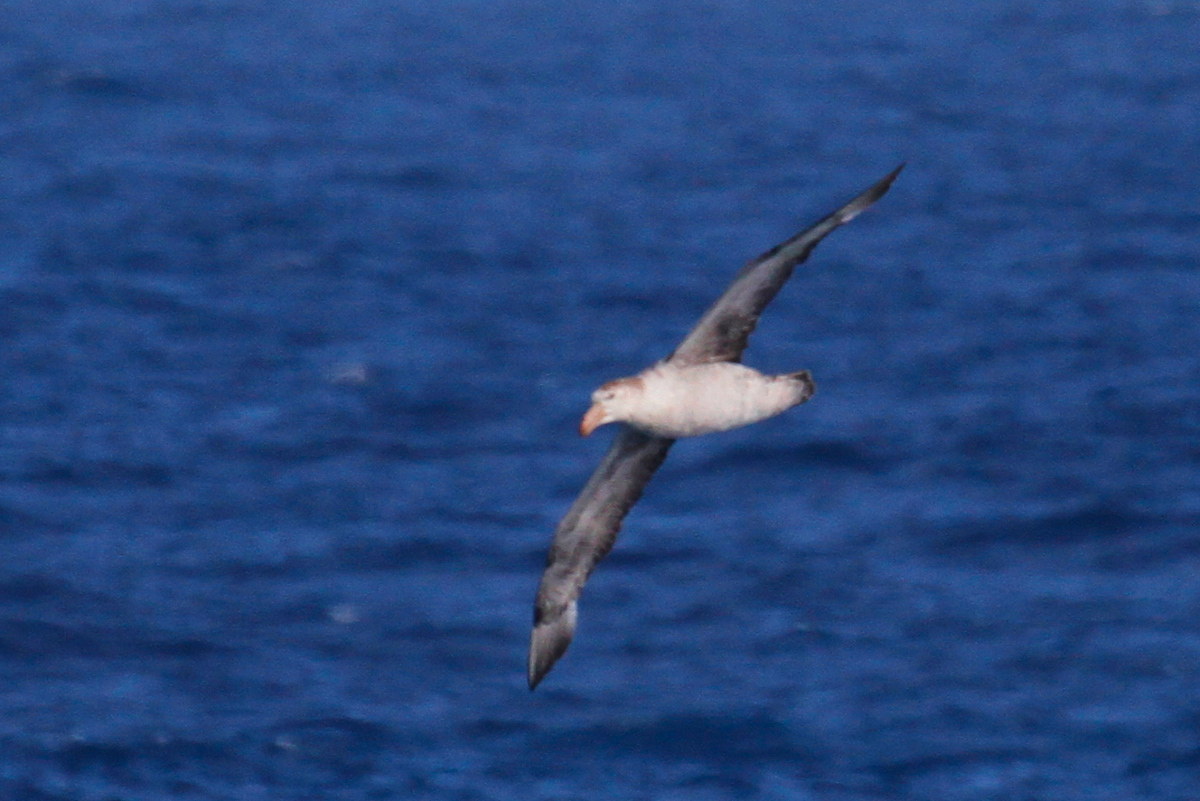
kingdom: Animalia
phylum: Chordata
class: Aves
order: Procellariiformes
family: Procellariidae
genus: Macronectes
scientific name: Macronectes halli
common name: Northern giant petrel
